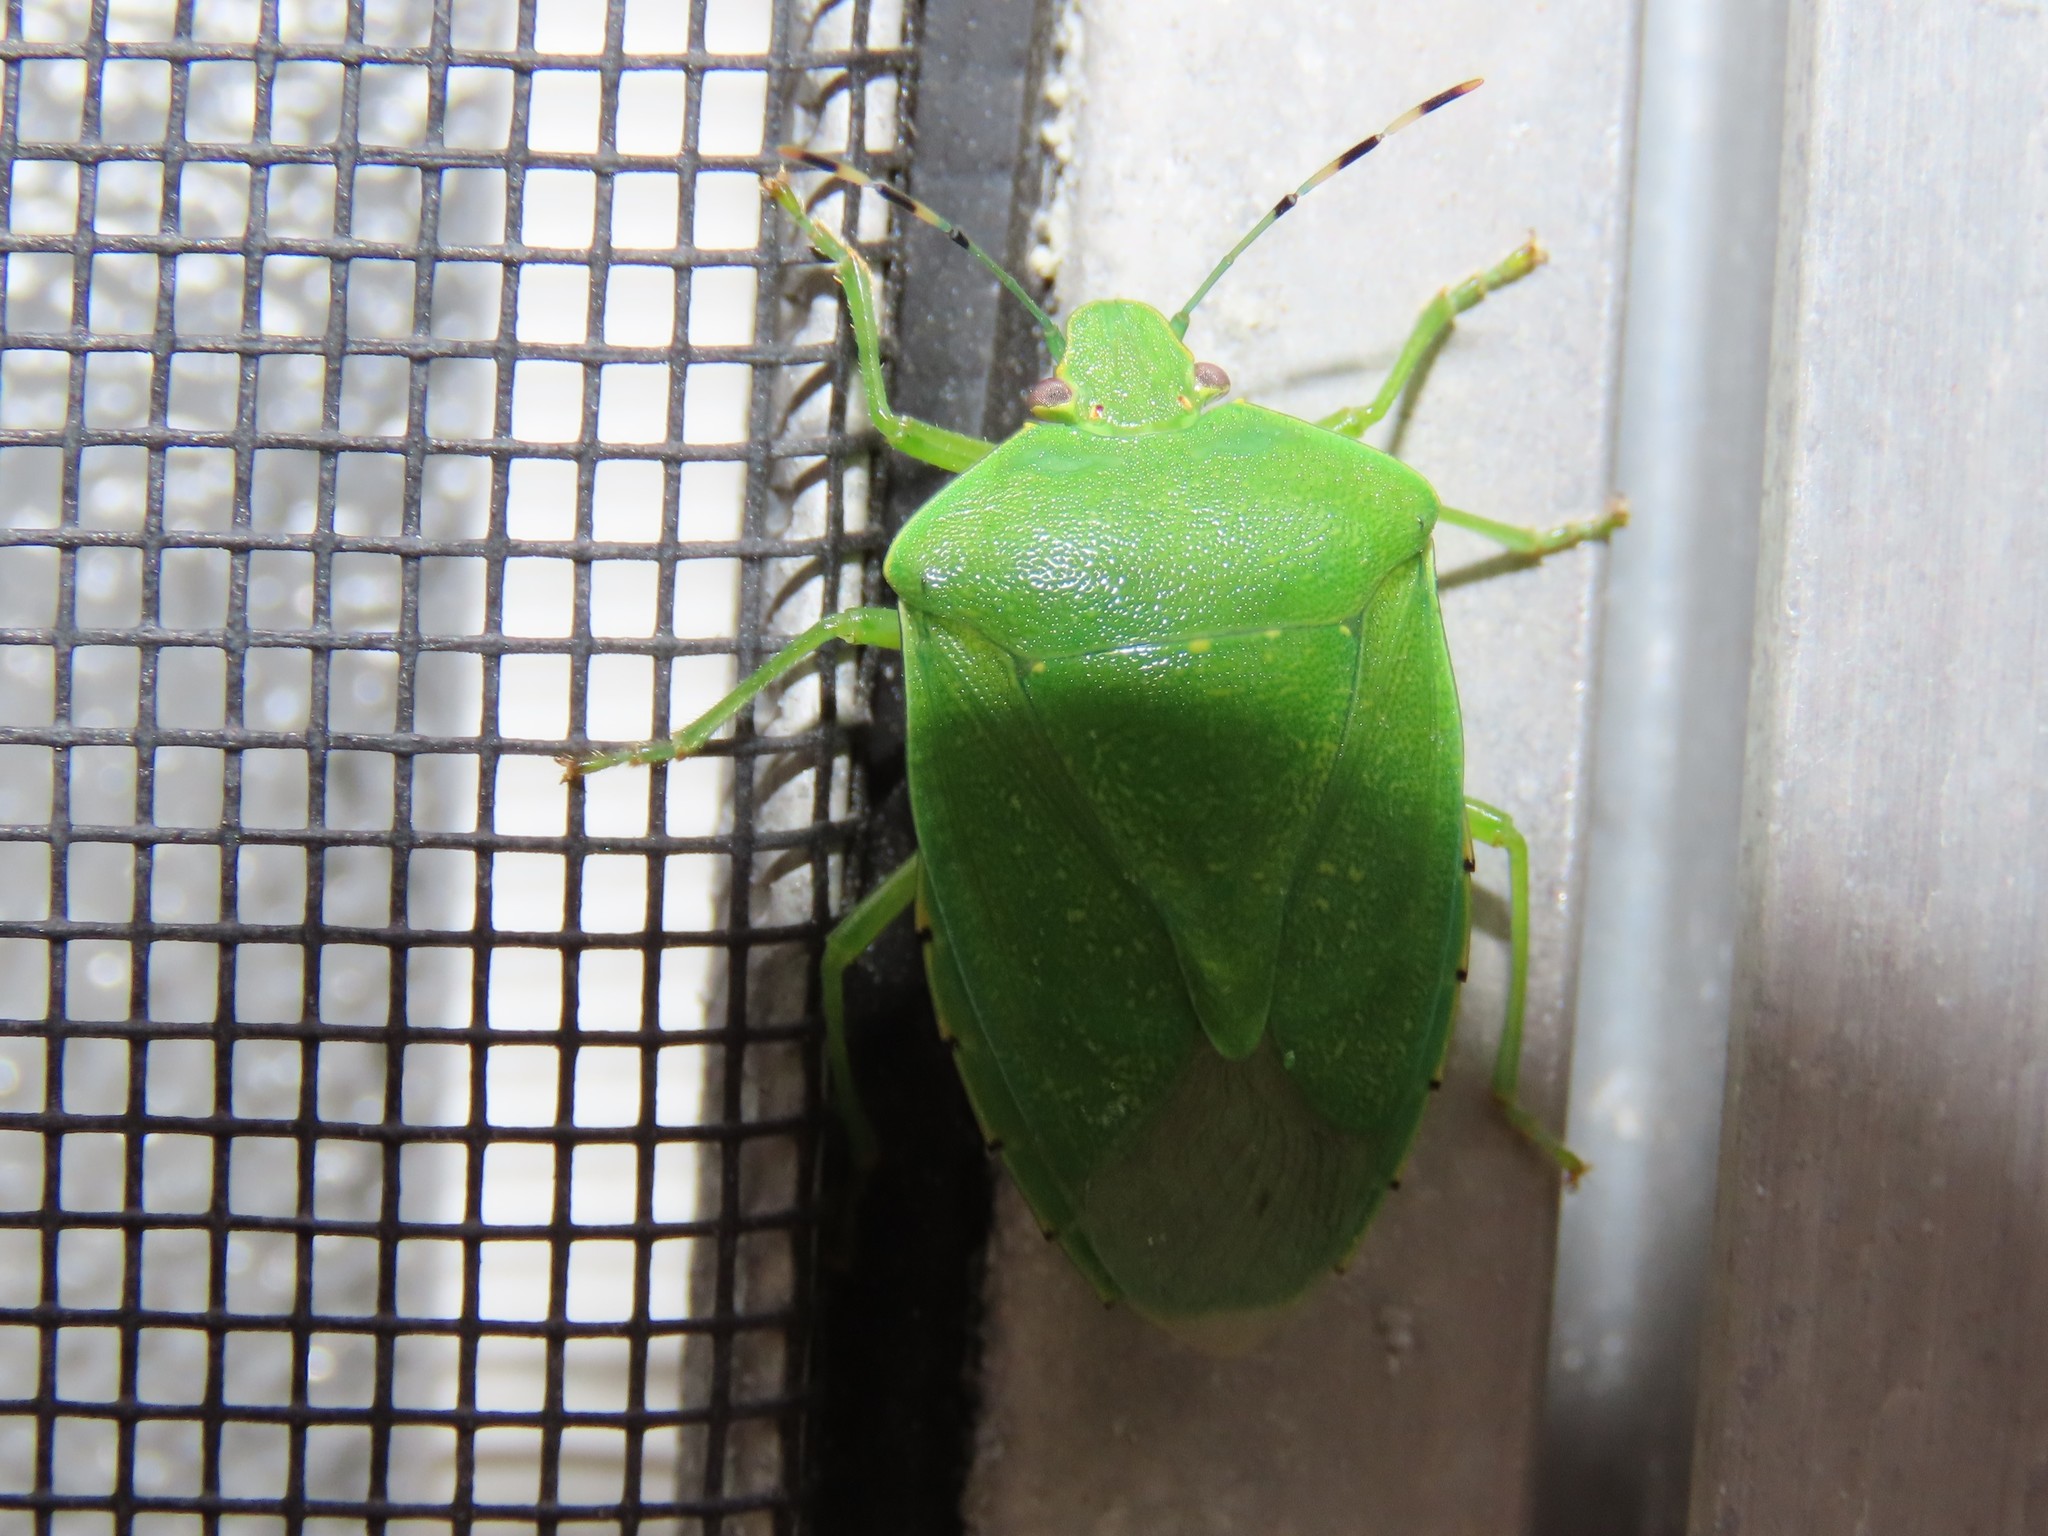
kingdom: Animalia
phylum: Arthropoda
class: Insecta
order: Hemiptera
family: Pentatomidae
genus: Chinavia
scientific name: Chinavia hilaris
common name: Green stink bug
